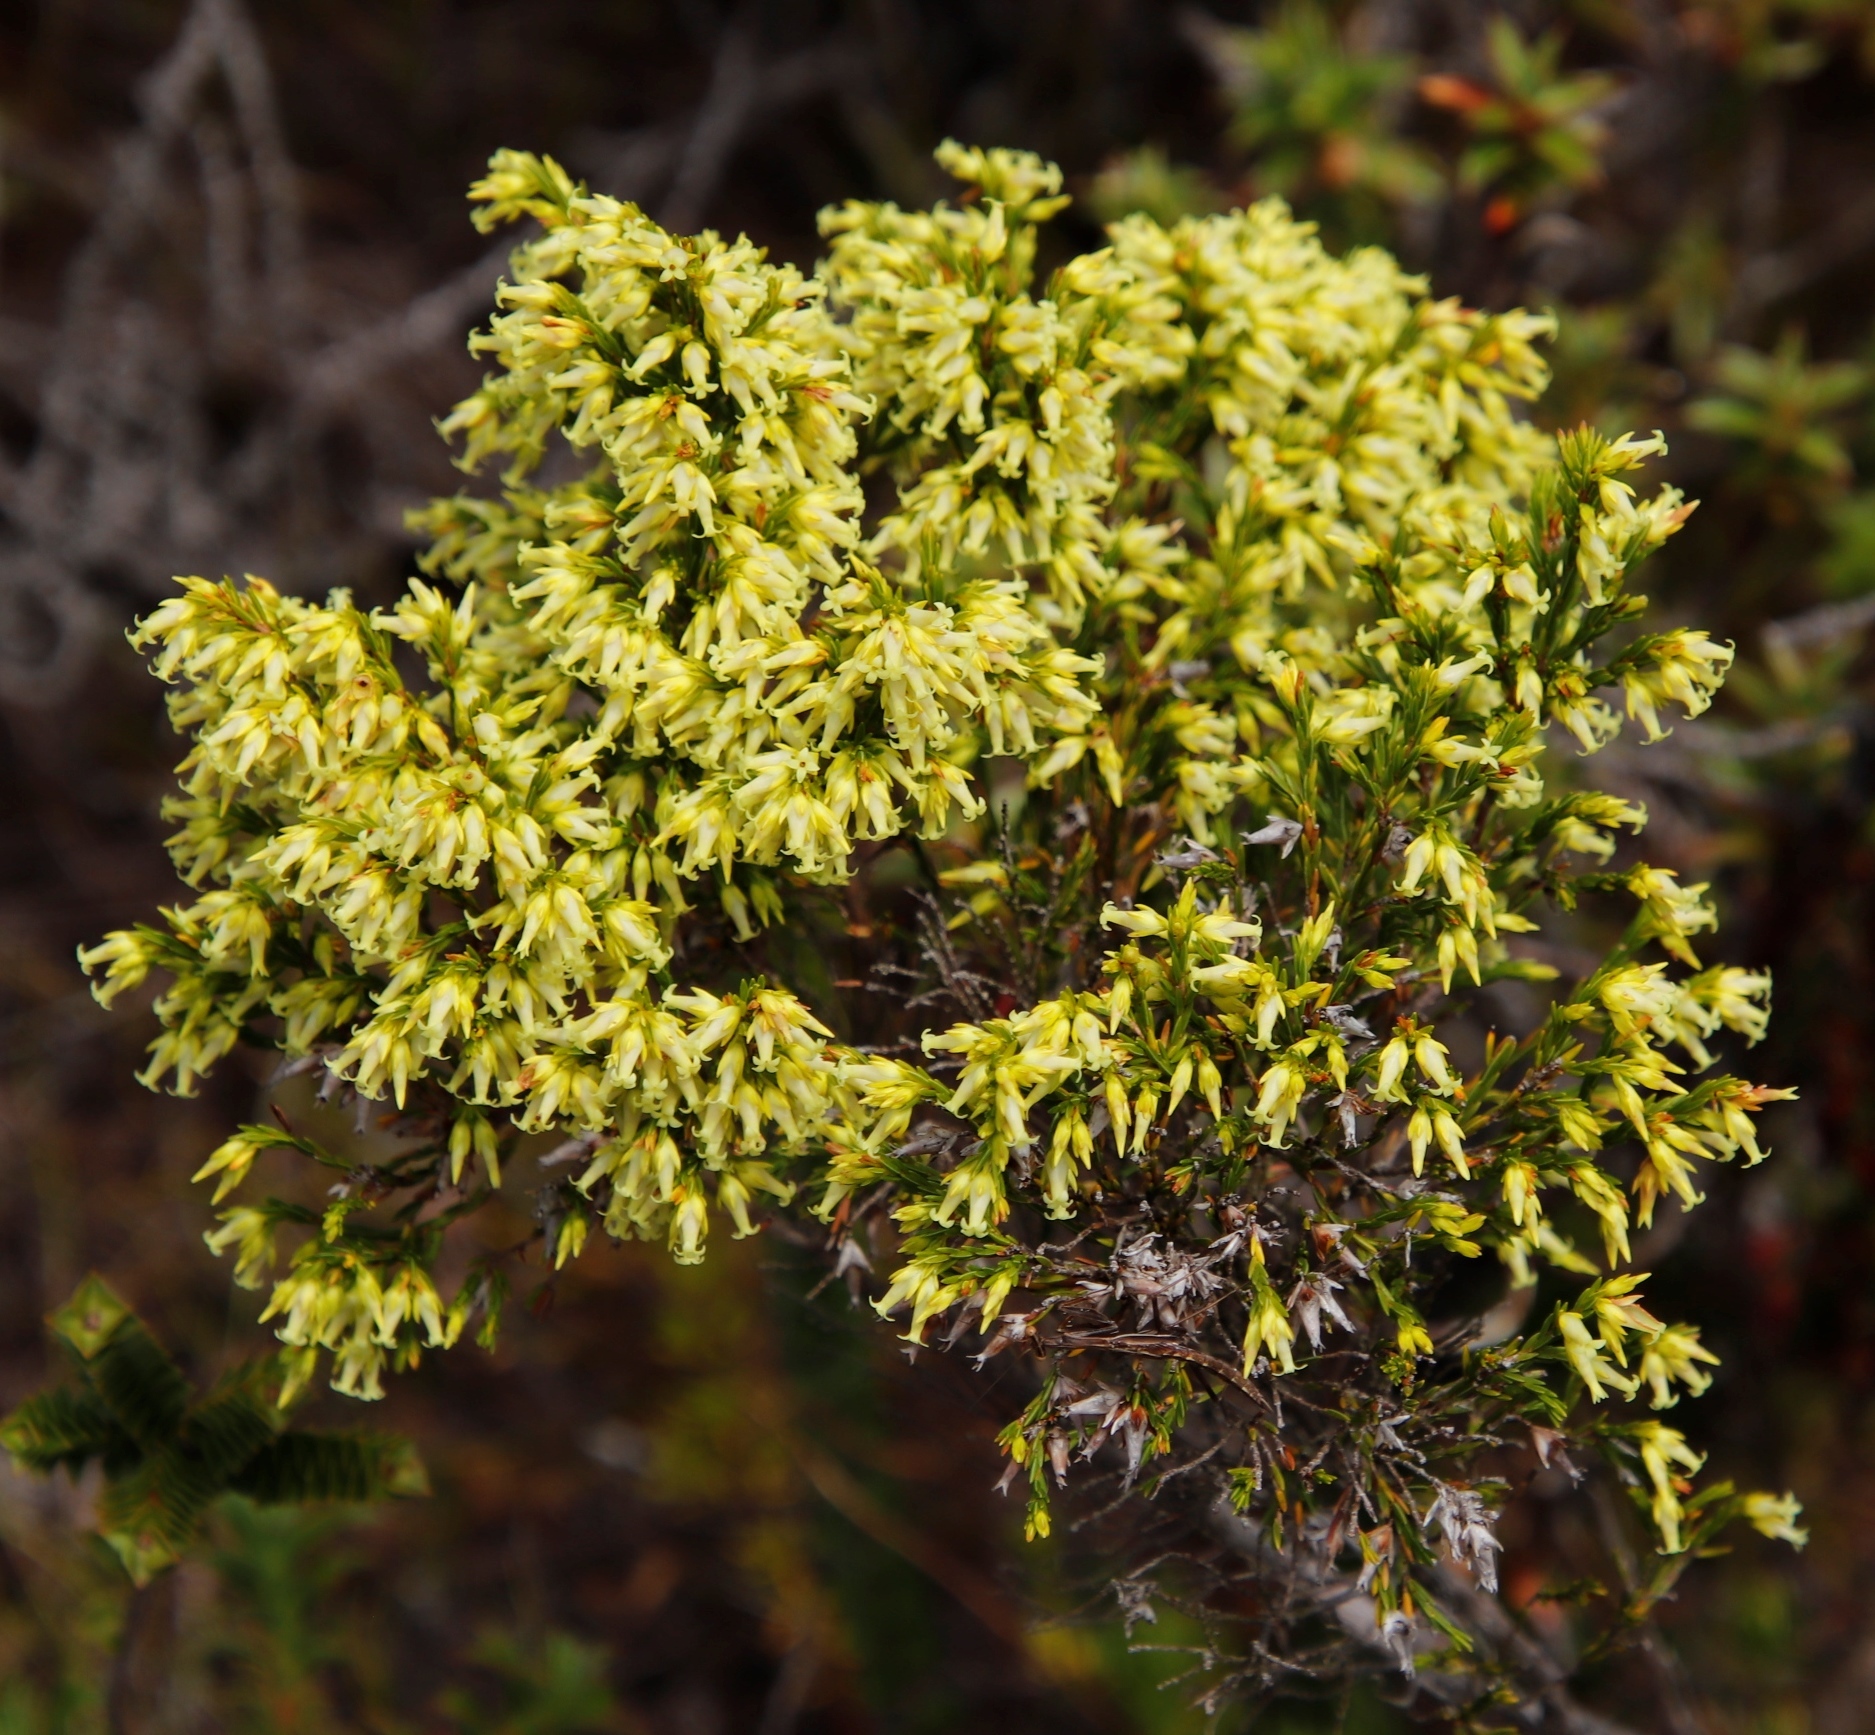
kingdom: Plantae
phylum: Tracheophyta
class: Magnoliopsida
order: Ericales
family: Ericaceae
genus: Erica
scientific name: Erica lutea
